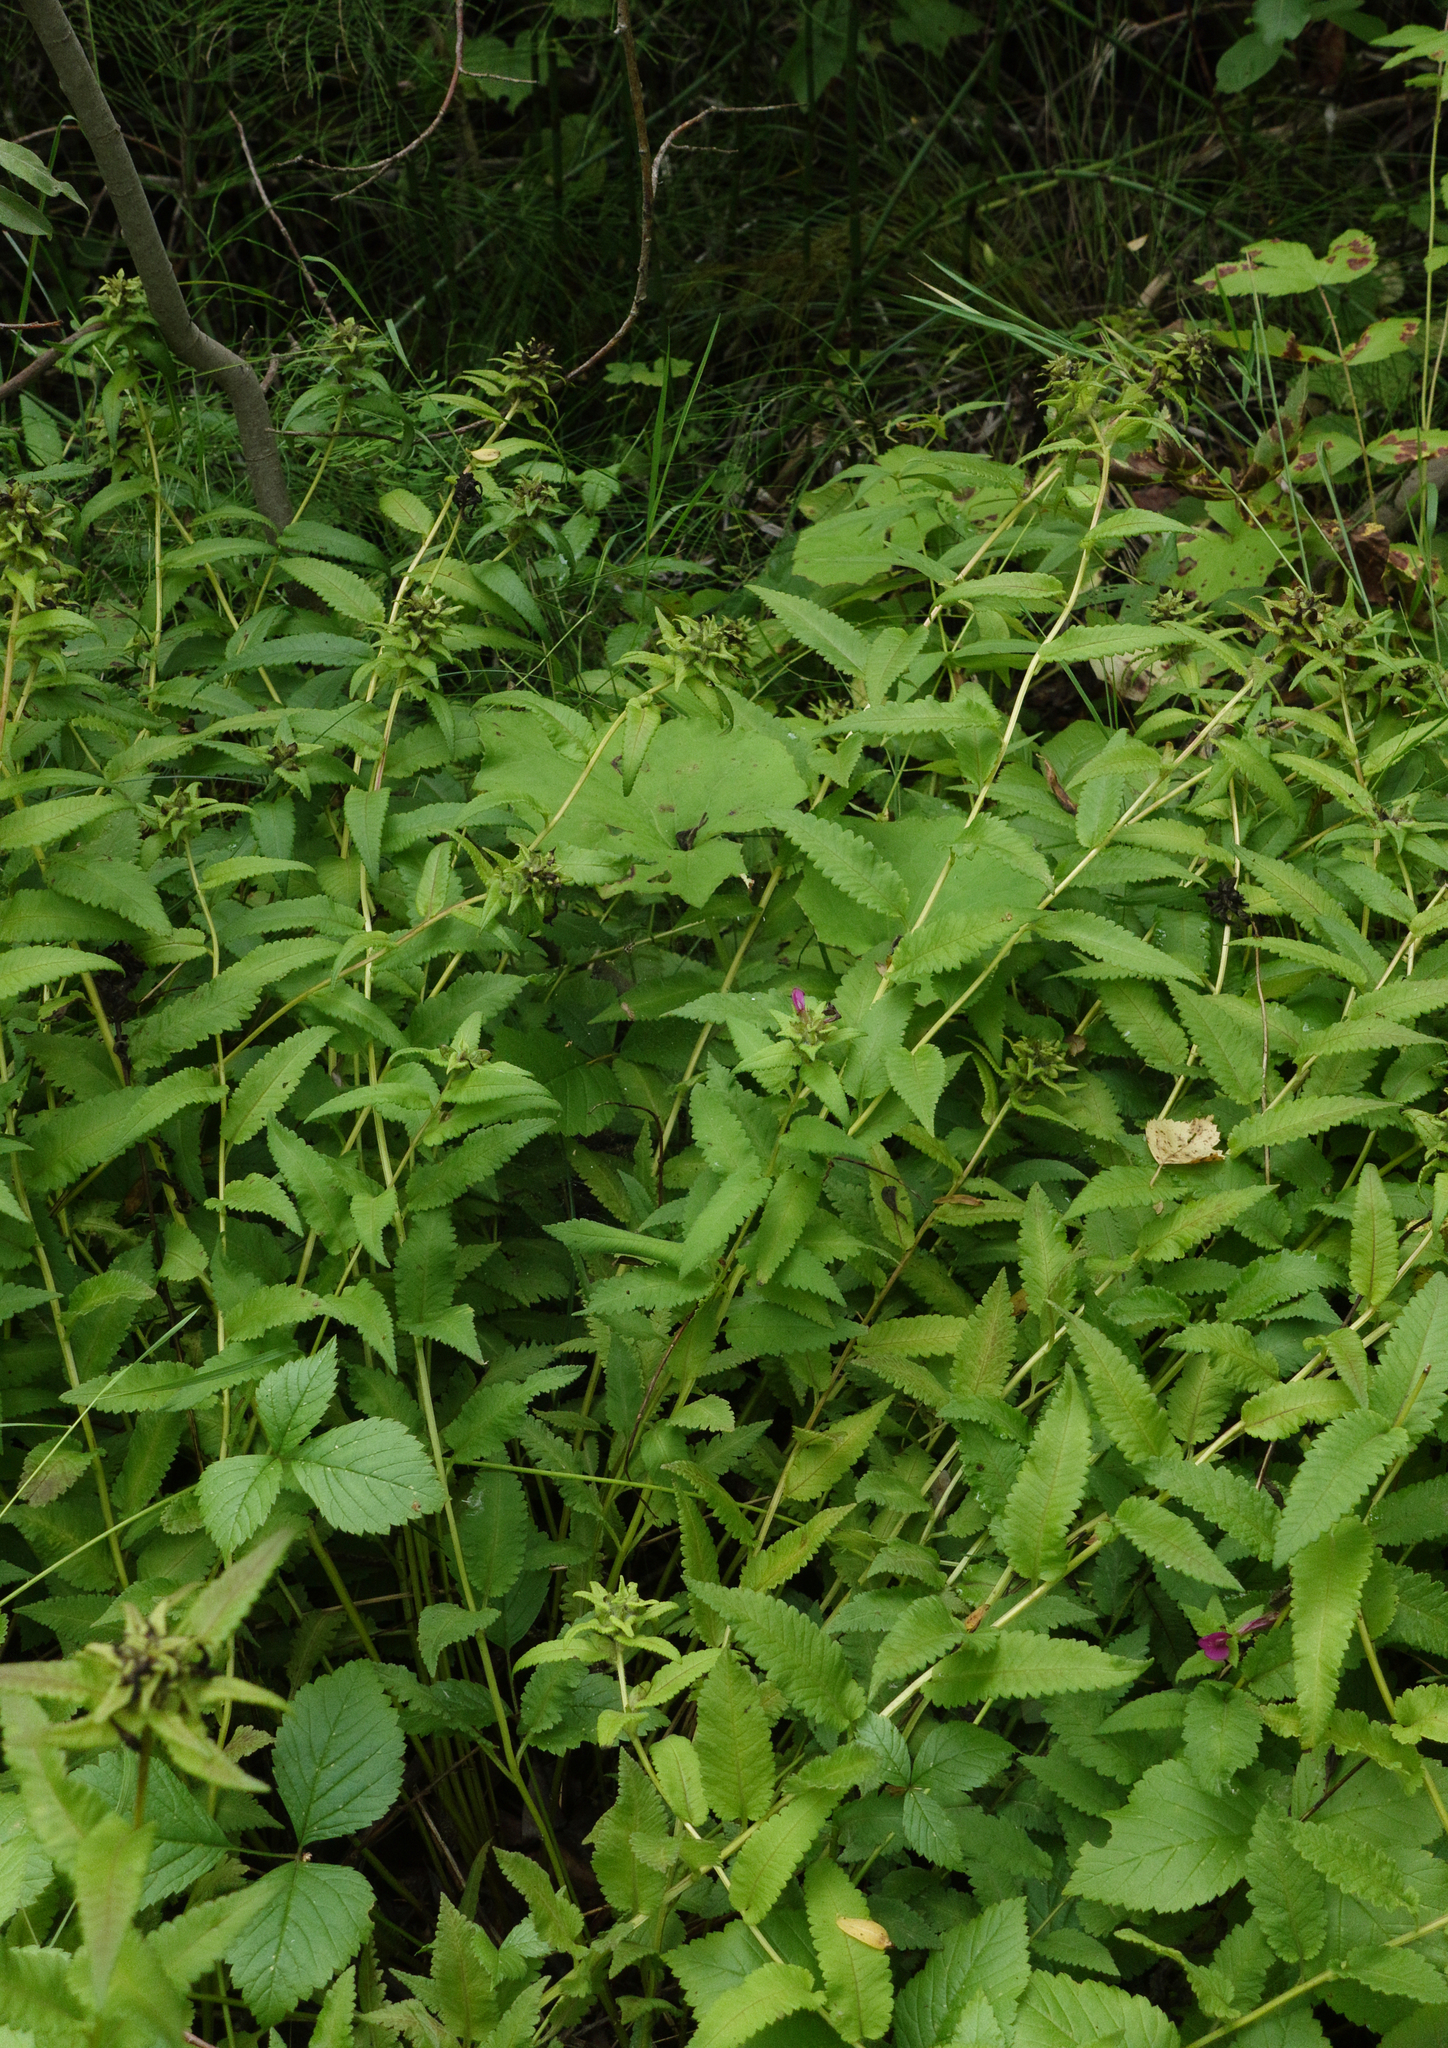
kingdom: Plantae
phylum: Tracheophyta
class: Magnoliopsida
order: Lamiales
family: Orobanchaceae
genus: Pedicularis
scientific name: Pedicularis resupinata
